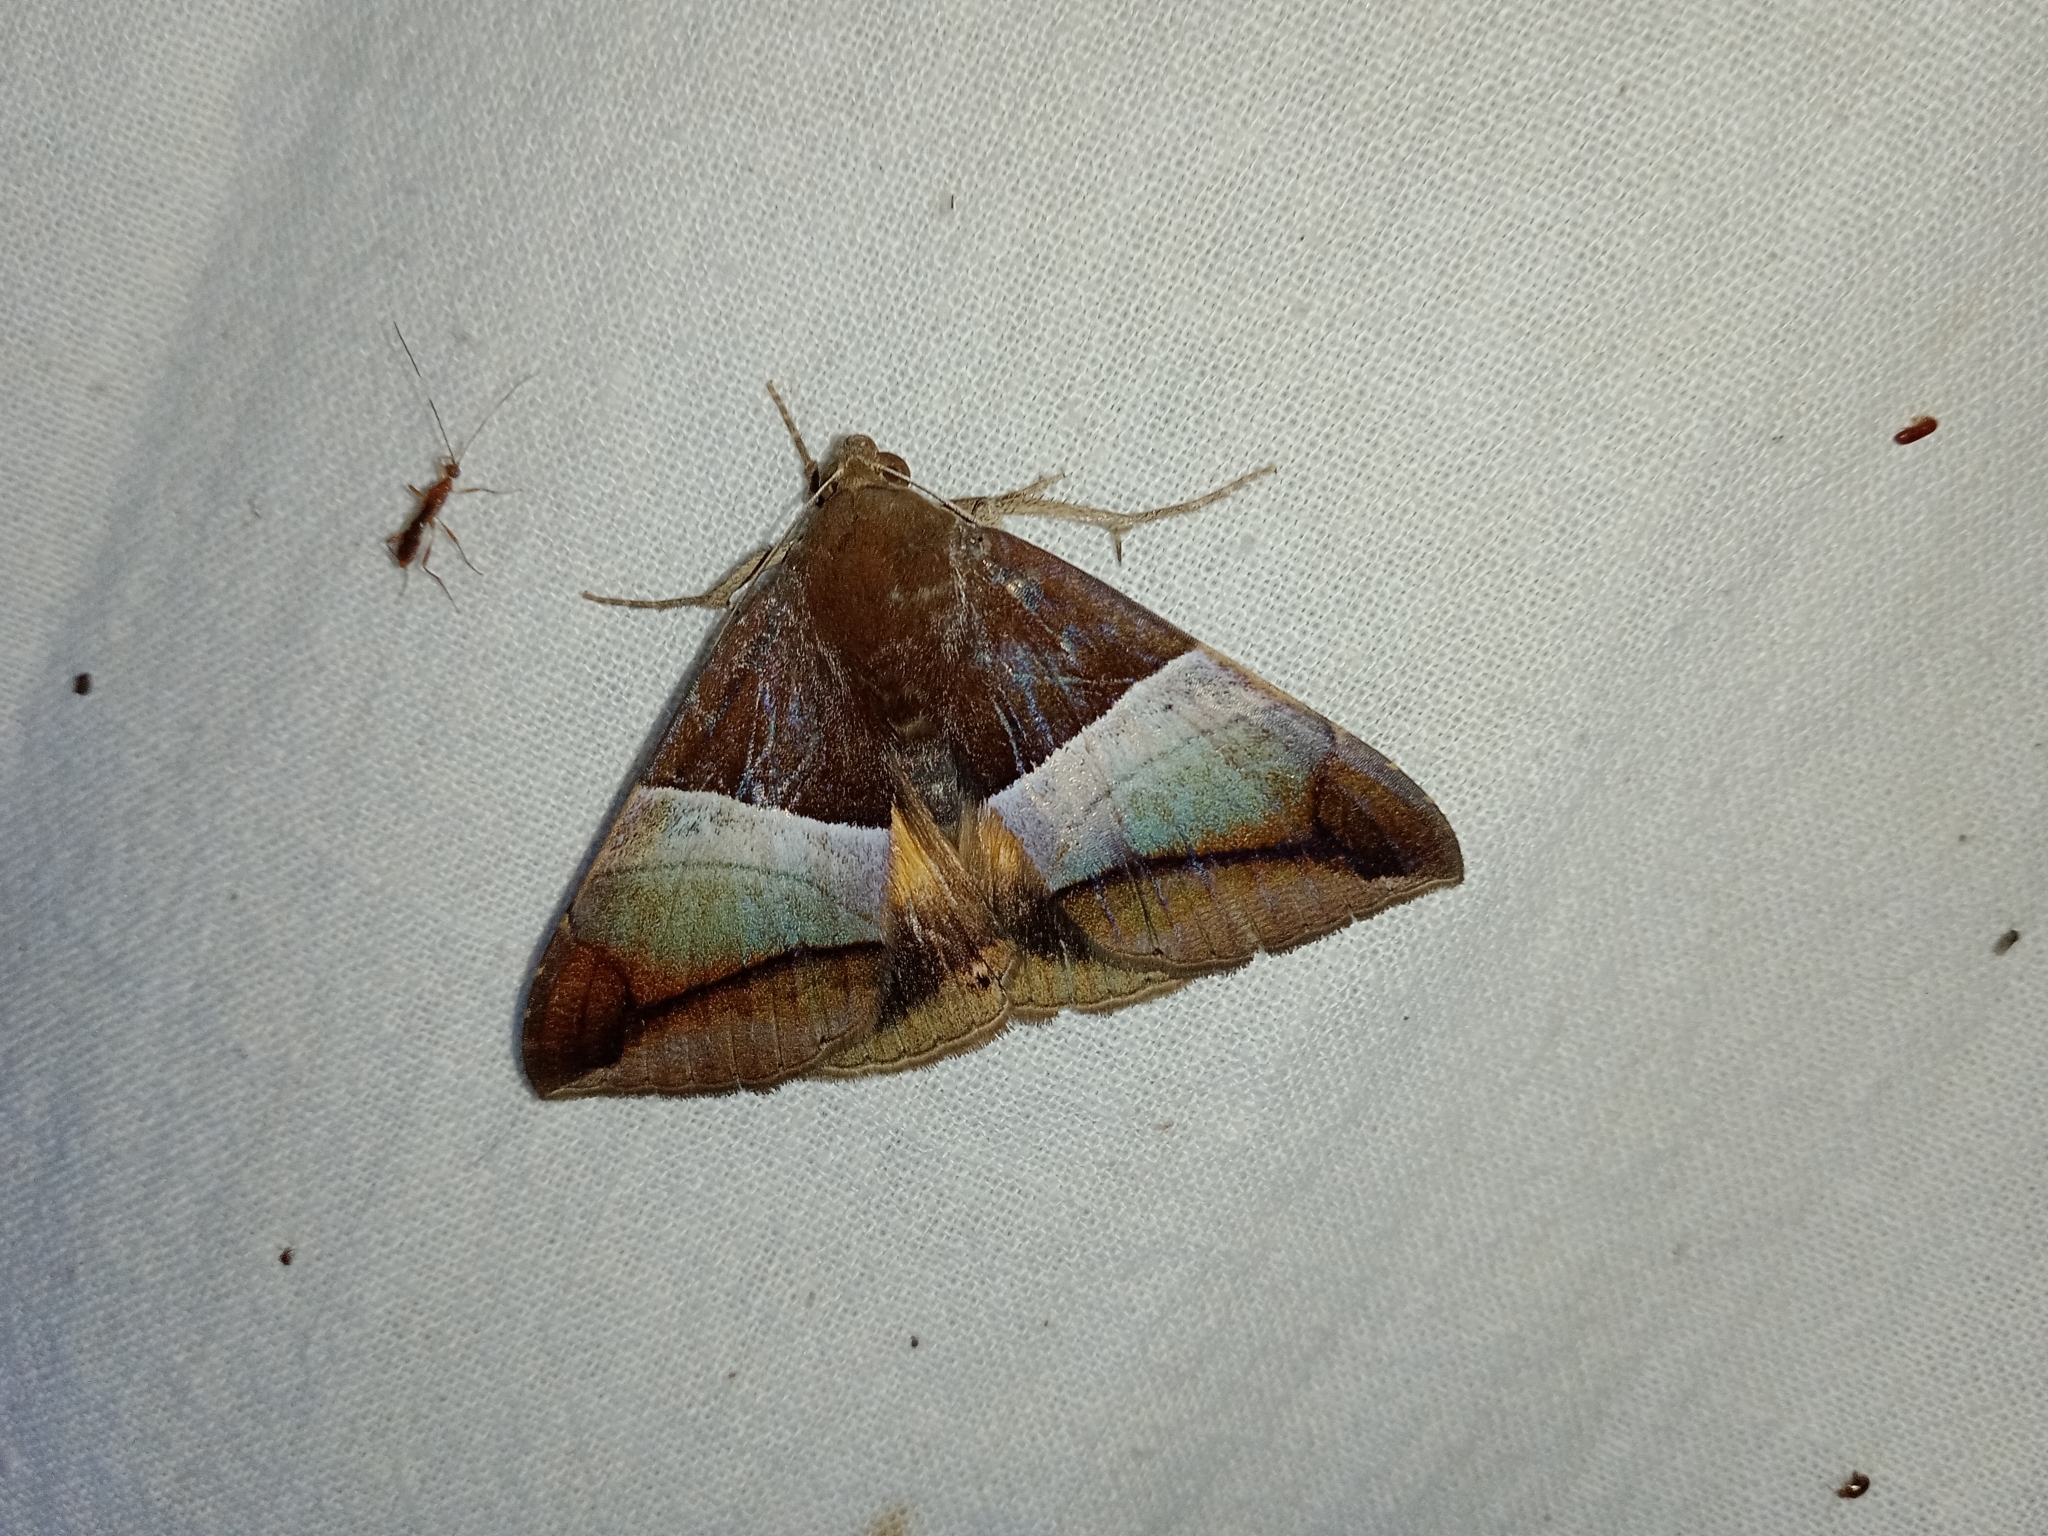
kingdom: Animalia
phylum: Arthropoda
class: Insecta
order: Lepidoptera
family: Erebidae
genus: Bastilla
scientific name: Bastilla fulvotaenia
